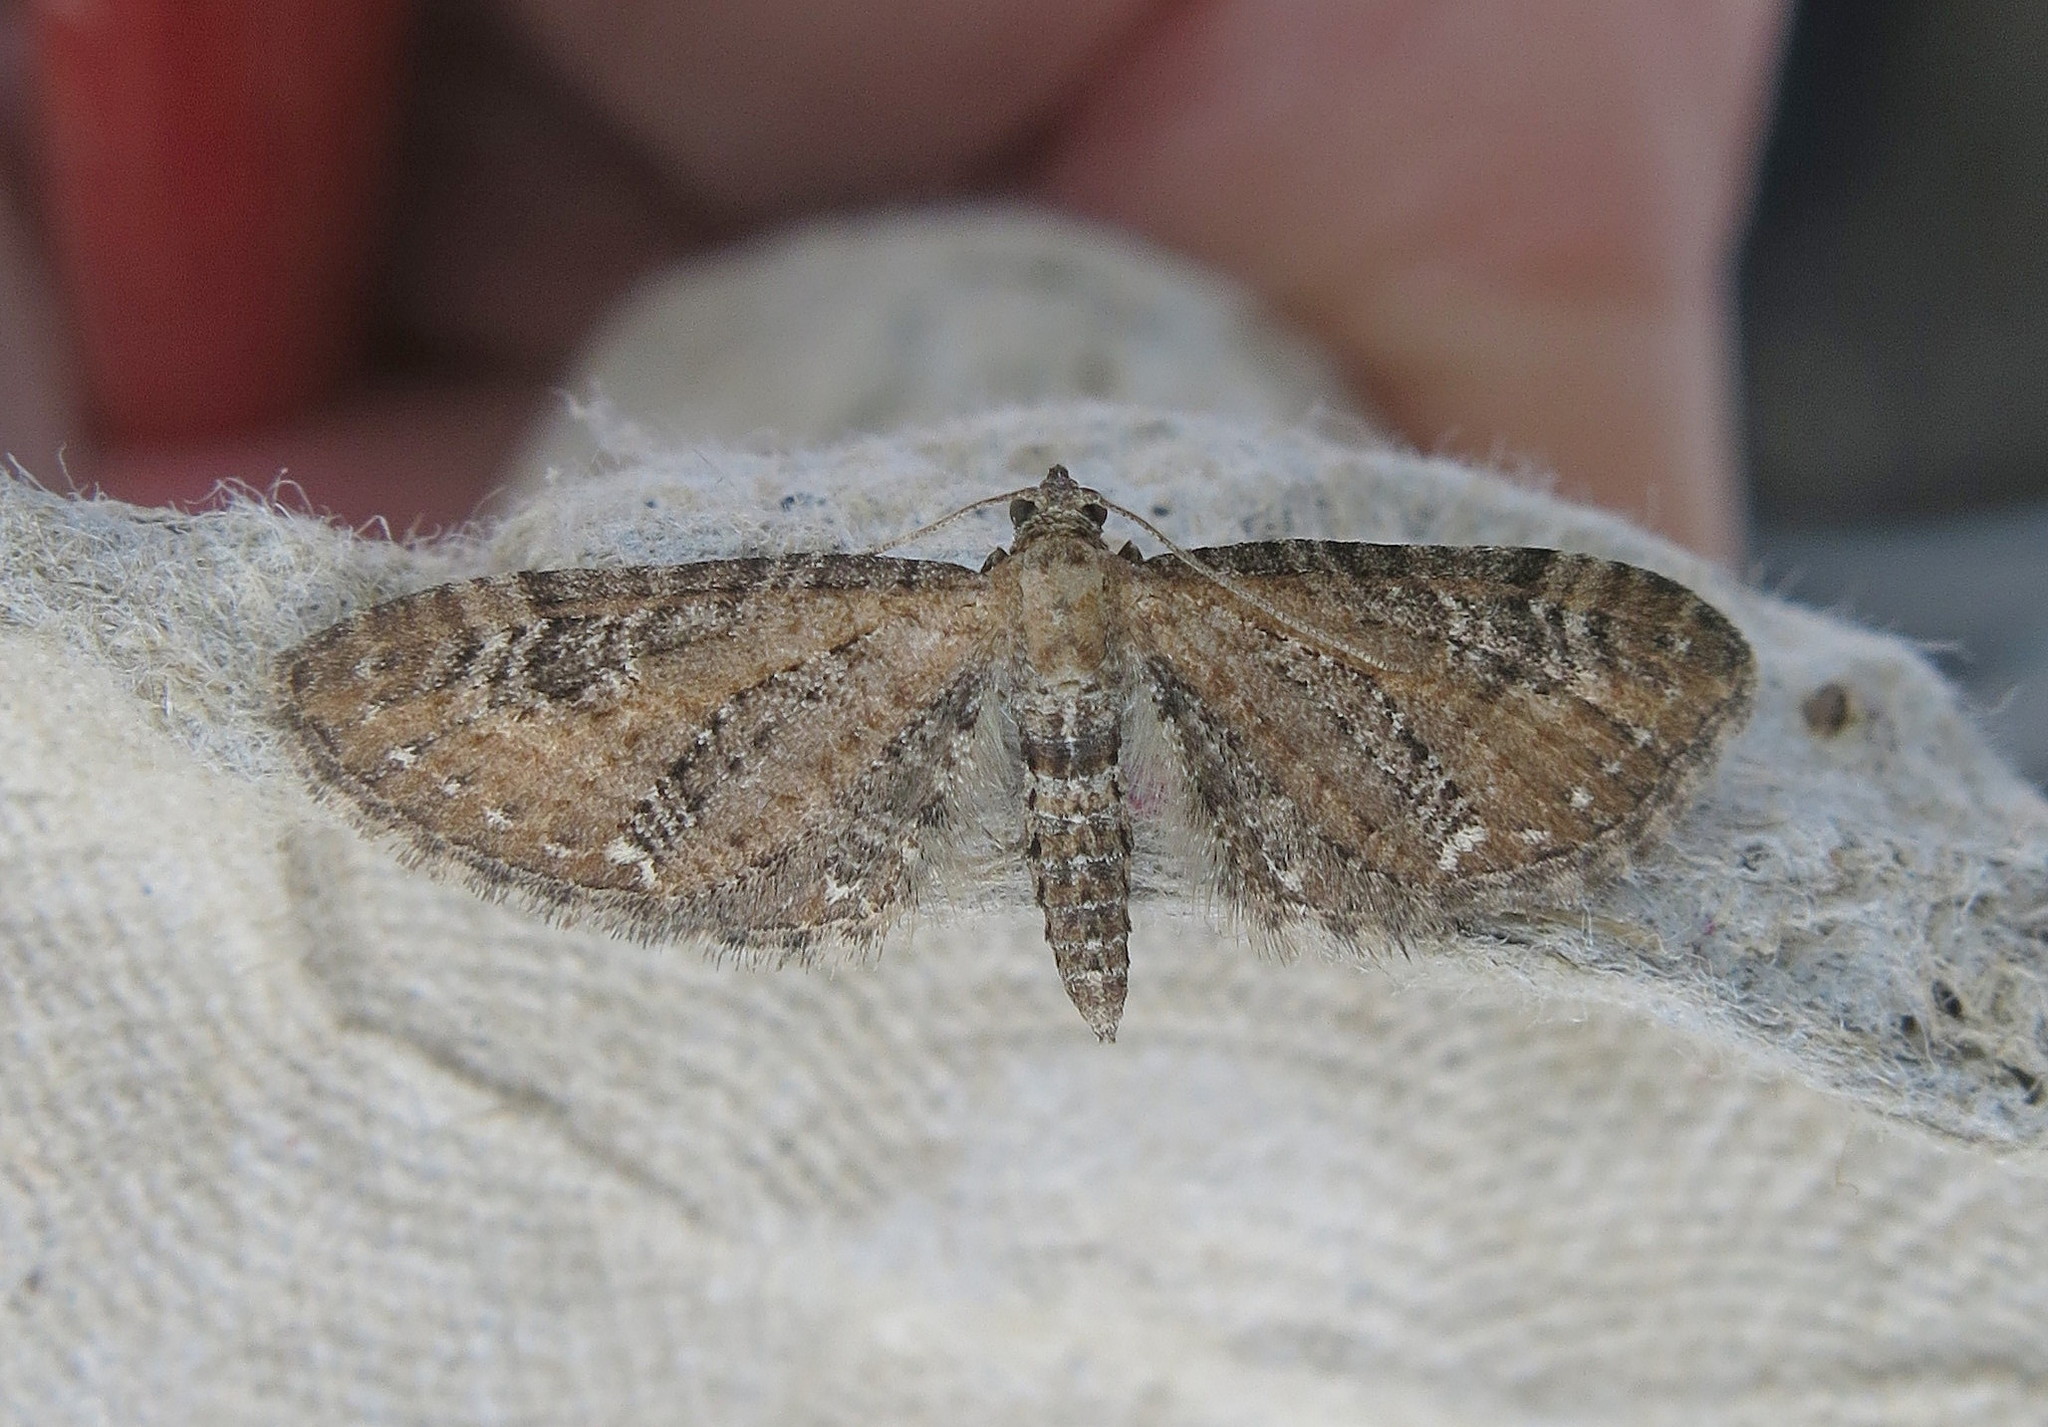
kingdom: Animalia
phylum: Arthropoda
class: Insecta
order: Lepidoptera
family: Geometridae
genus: Eupithecia
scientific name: Eupithecia vulgata
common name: Common pug
